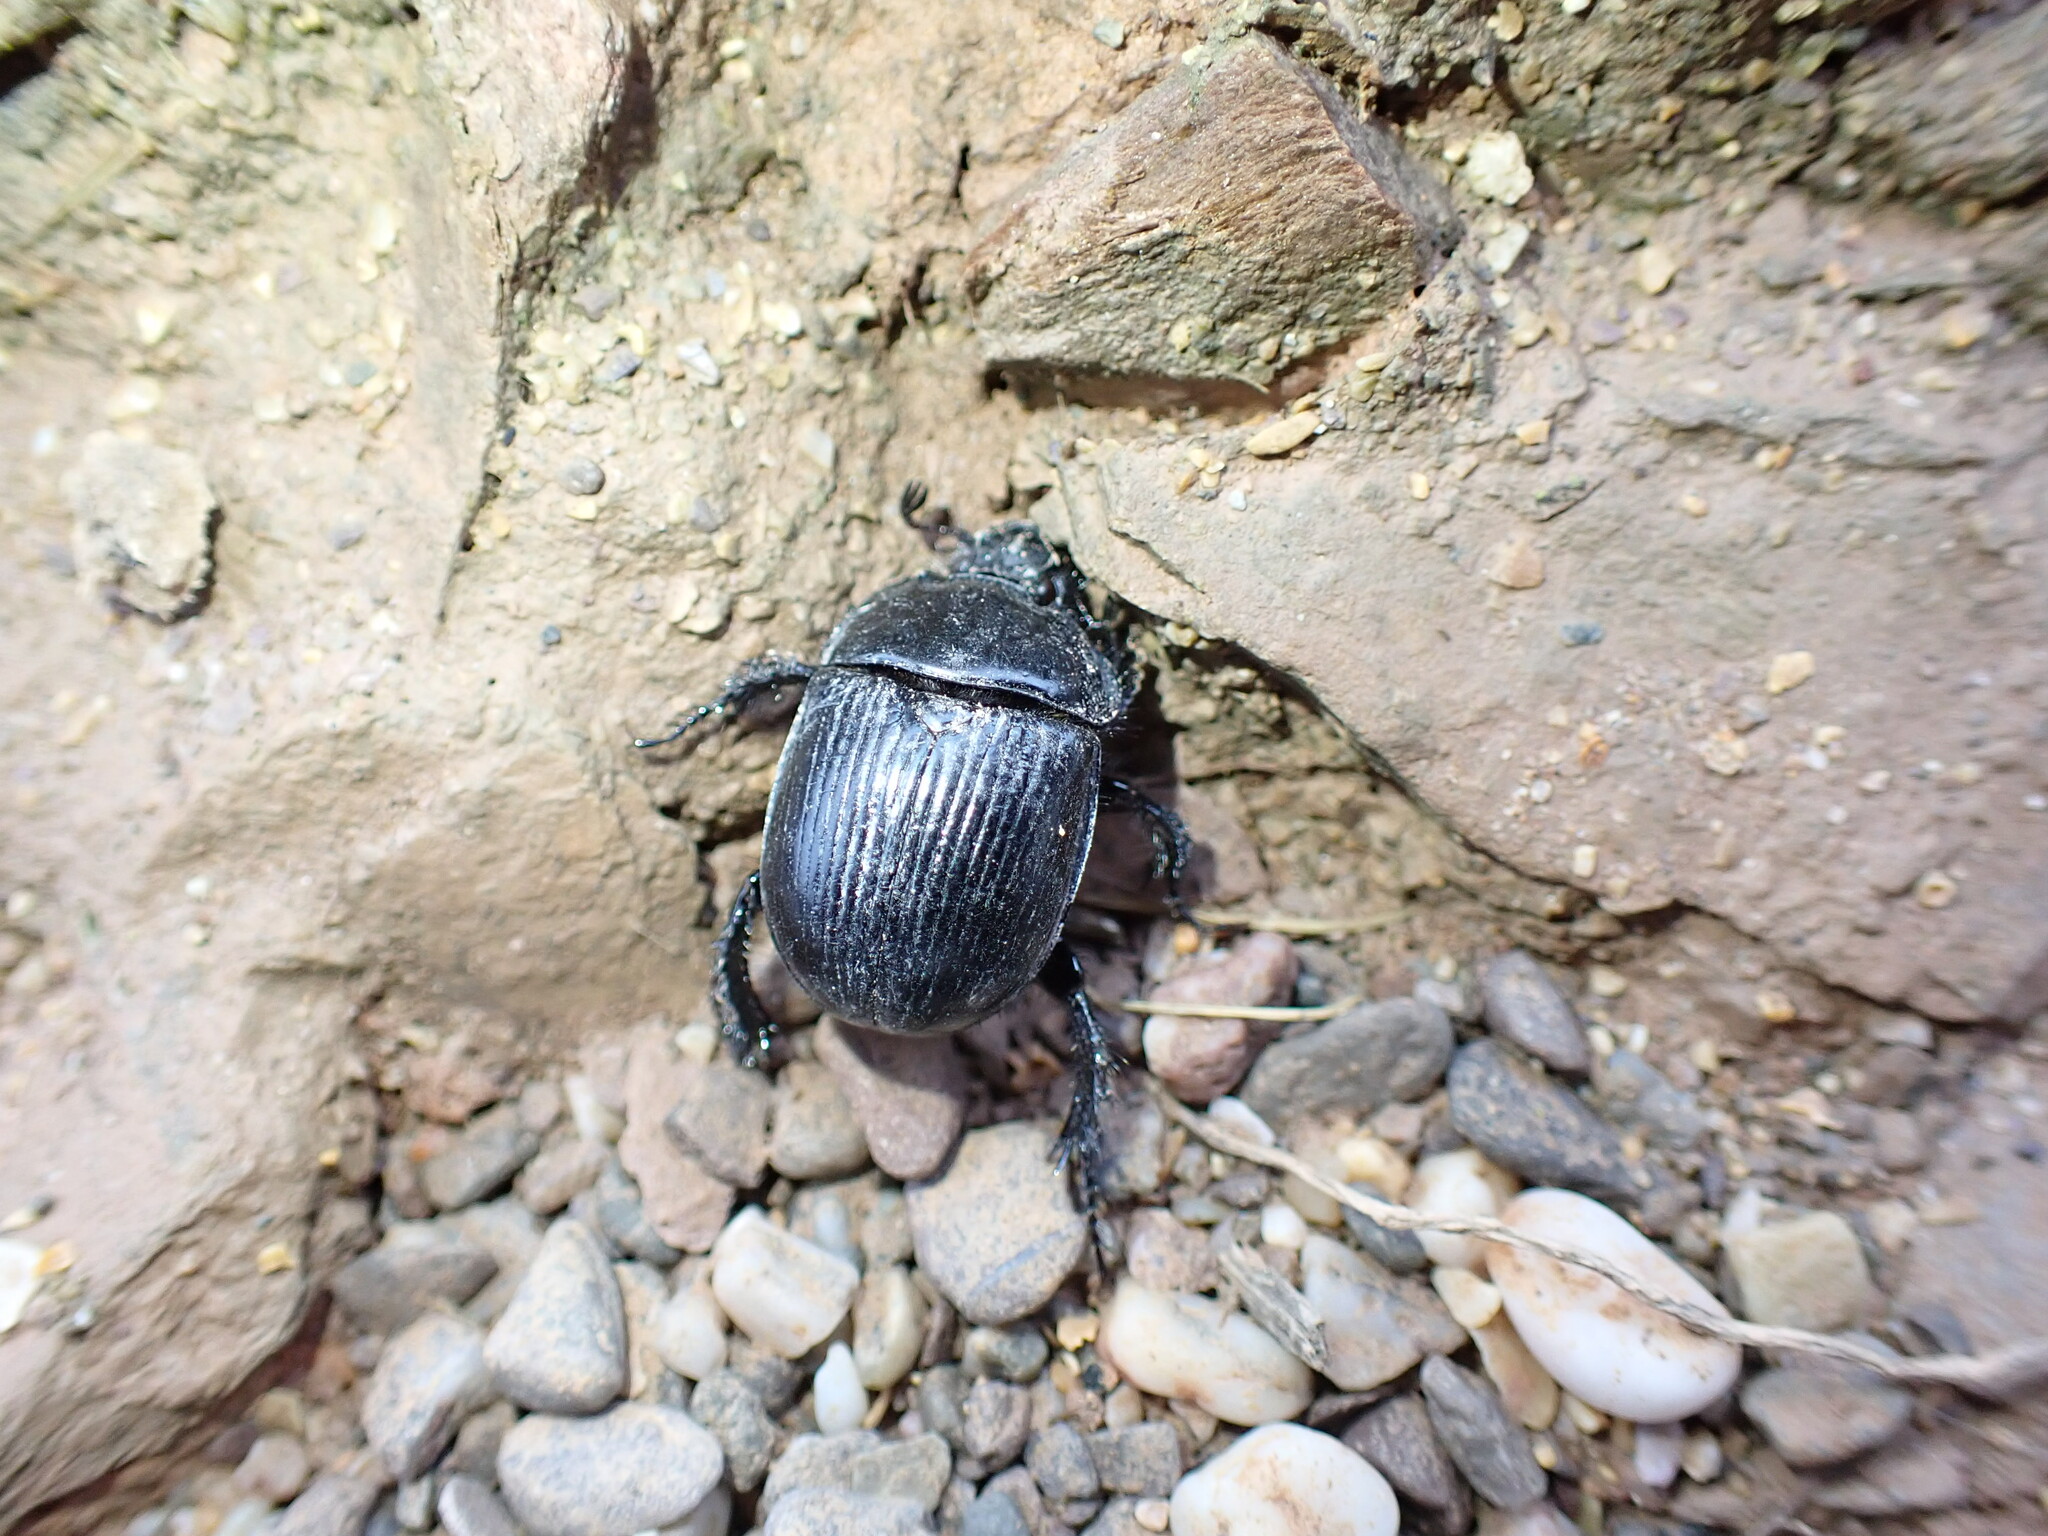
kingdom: Animalia
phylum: Arthropoda
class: Insecta
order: Coleoptera
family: Geotrupidae
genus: Typhaeus
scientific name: Typhaeus typhoeus
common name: Minotaur beetle
